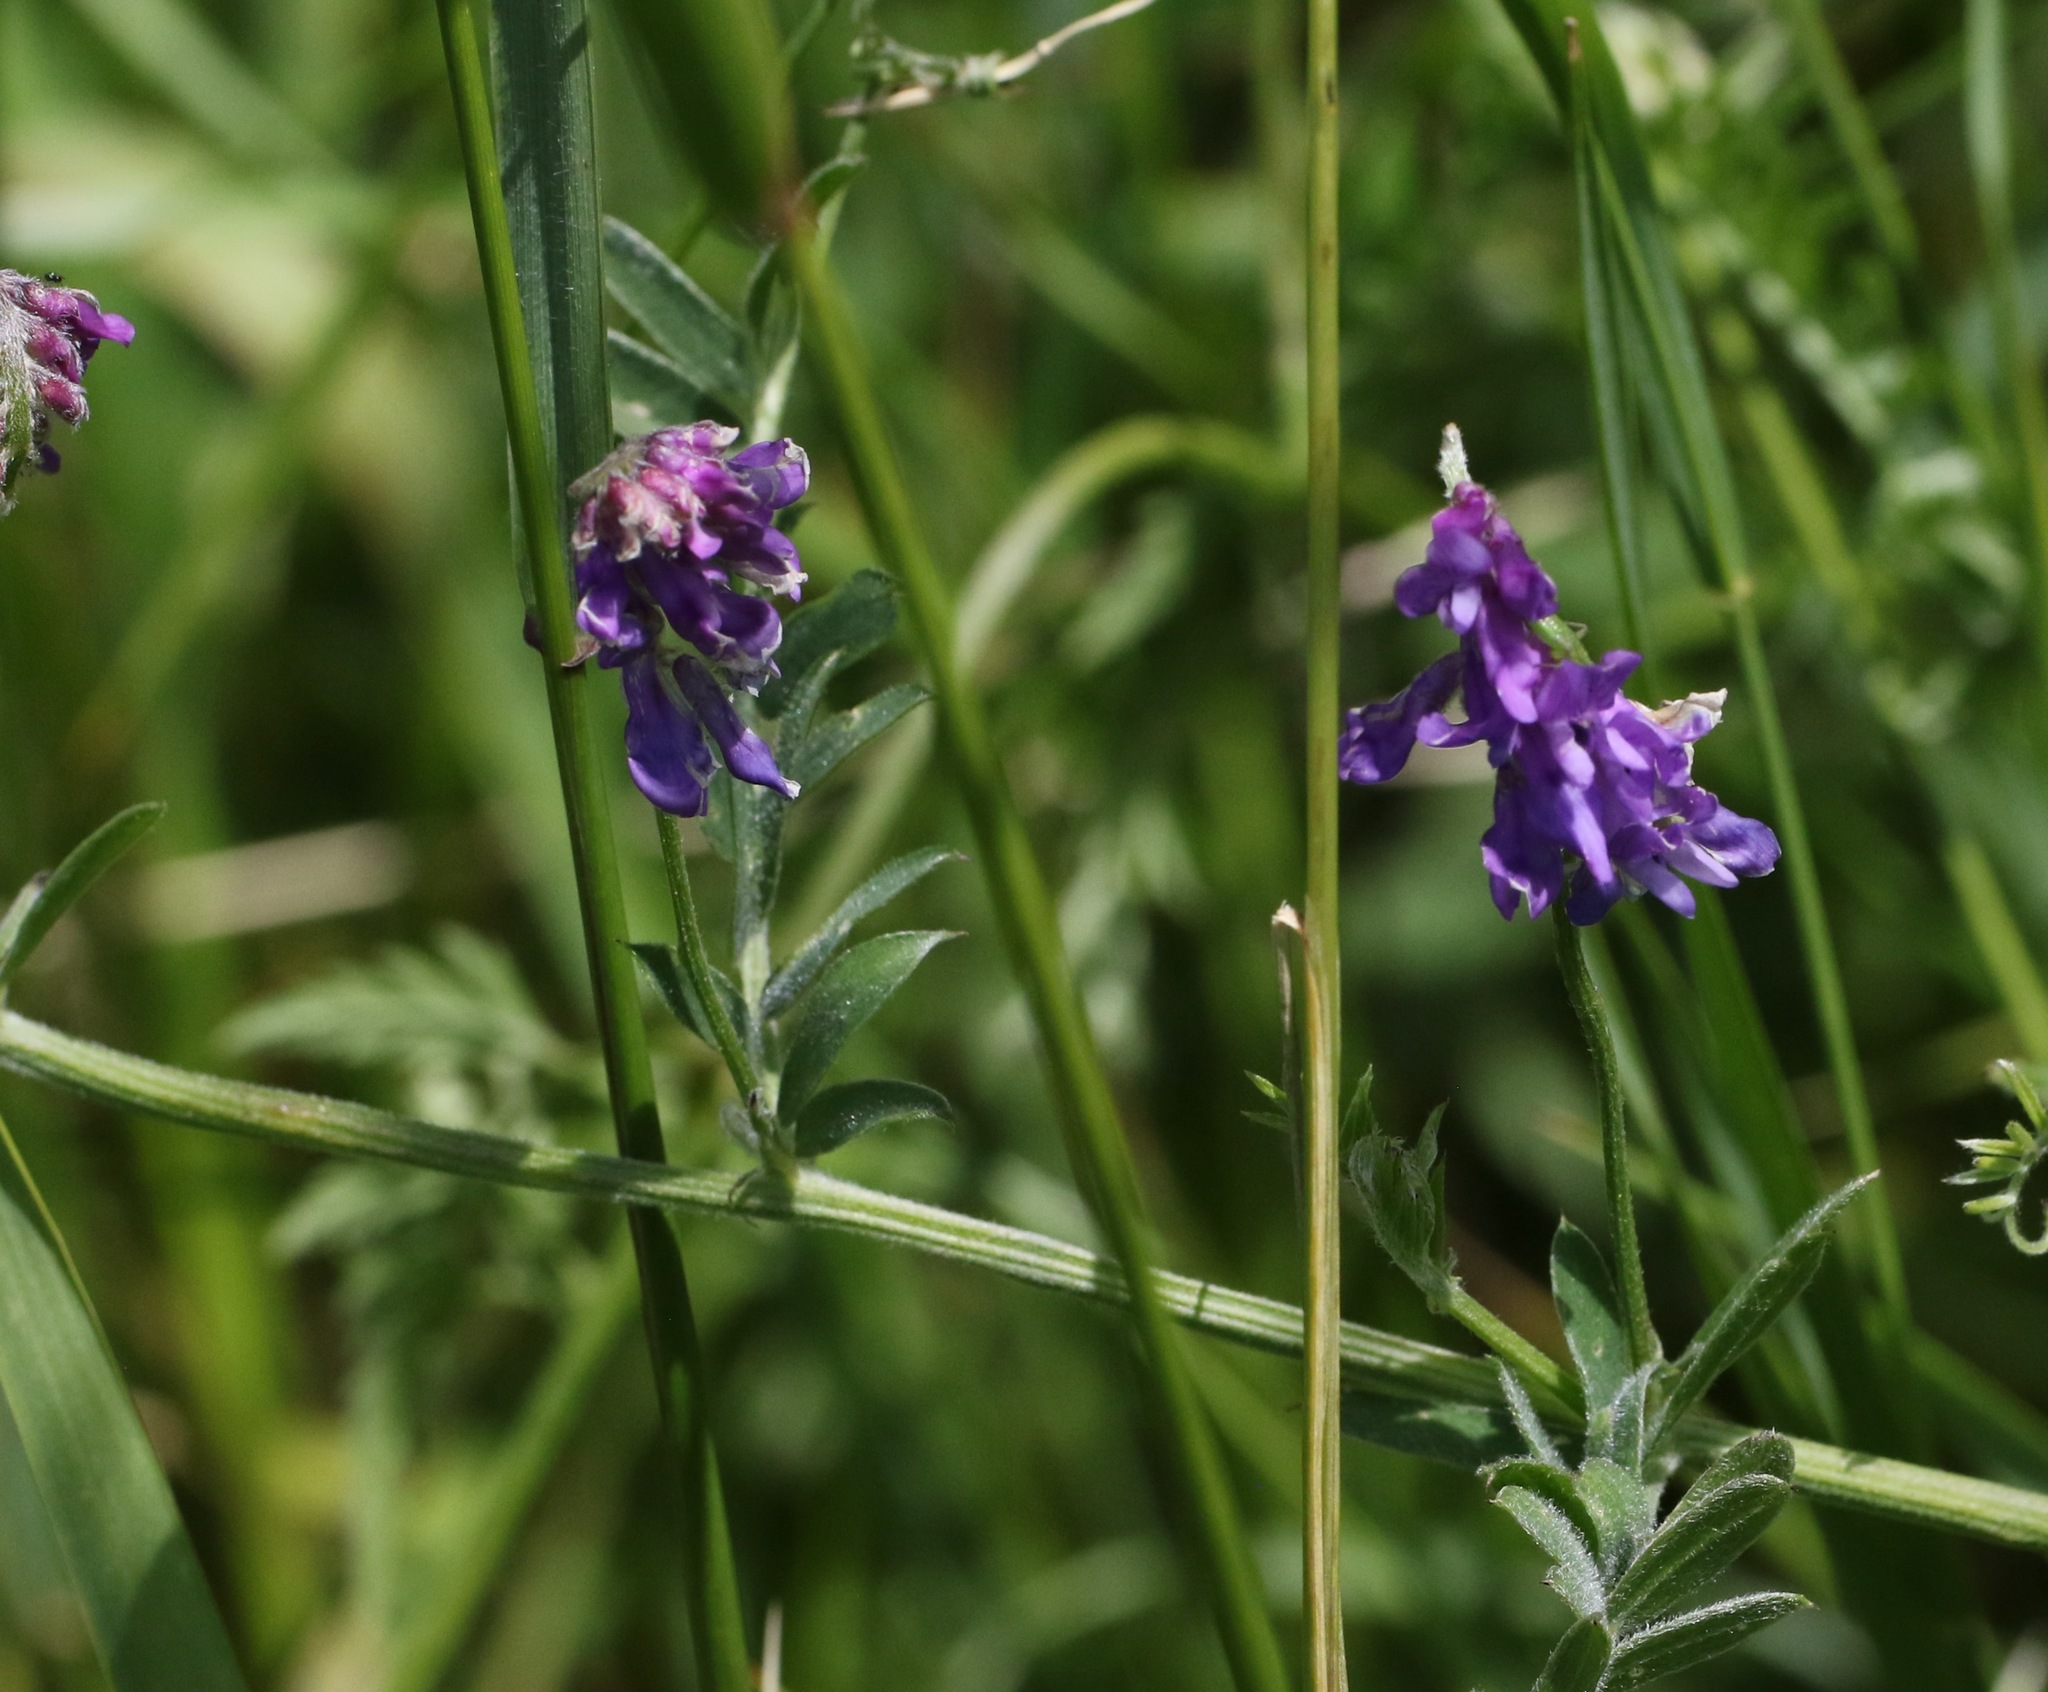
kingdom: Plantae
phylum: Tracheophyta
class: Magnoliopsida
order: Fabales
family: Fabaceae
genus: Vicia
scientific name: Vicia cracca
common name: Bird vetch
